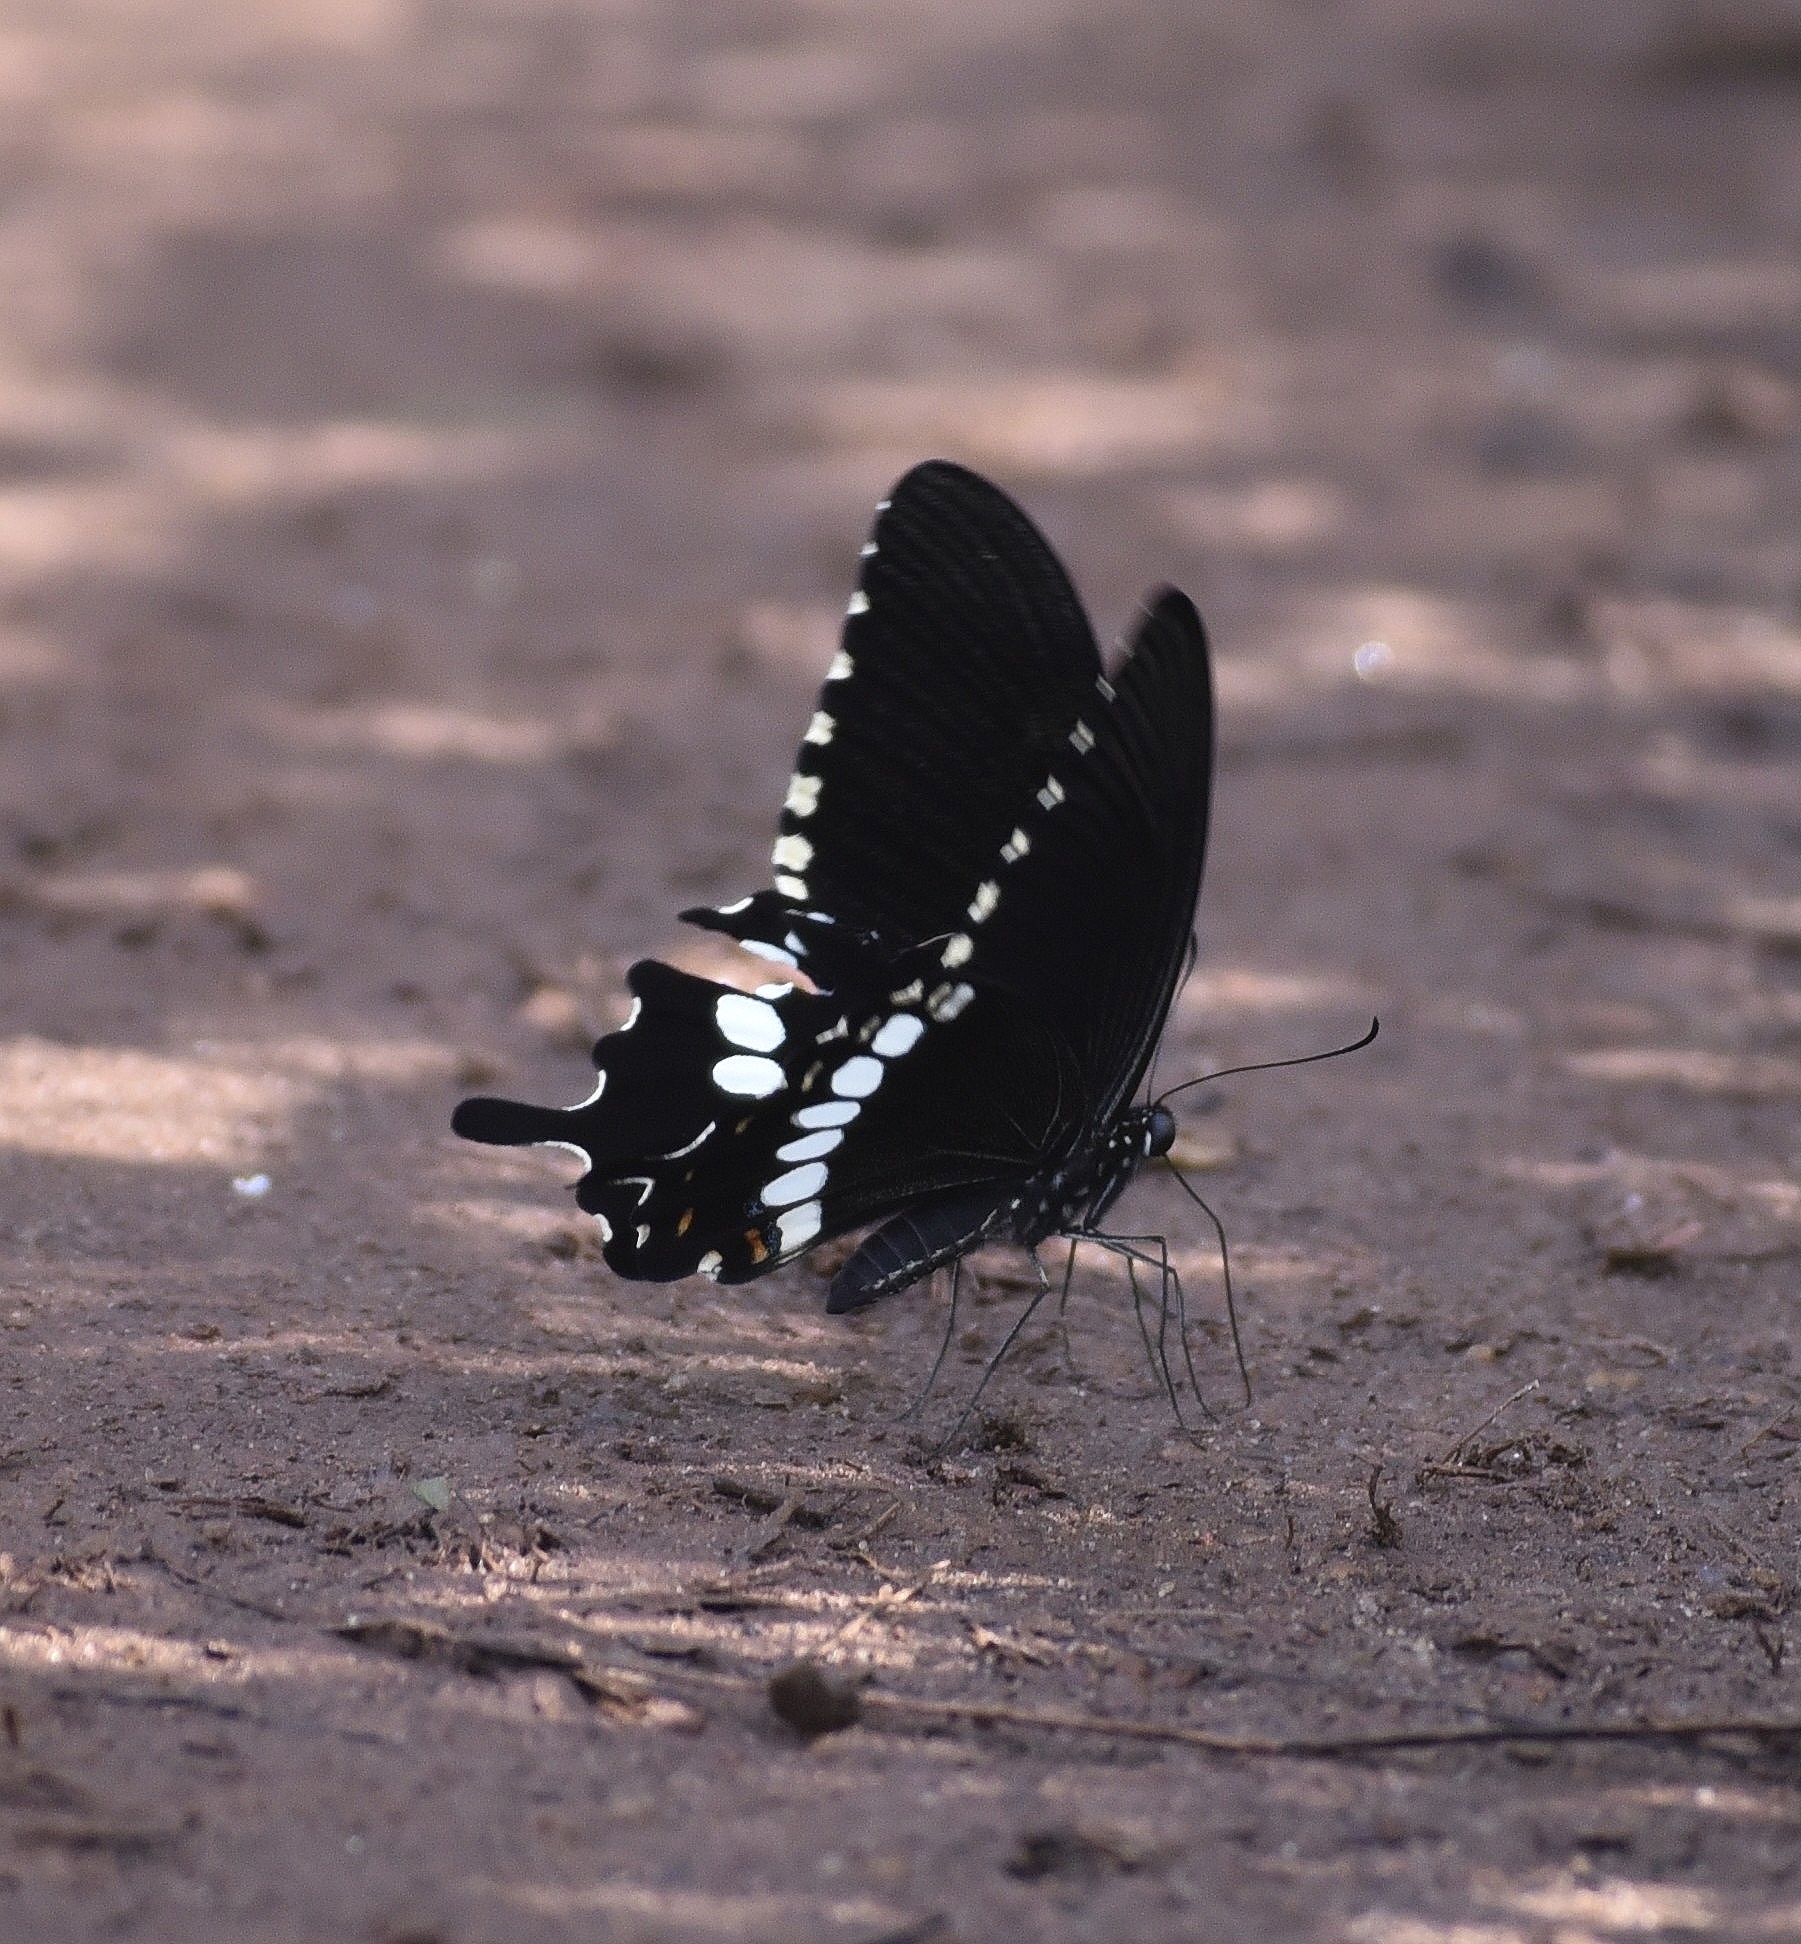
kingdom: Animalia
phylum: Arthropoda
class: Insecta
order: Lepidoptera
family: Papilionidae
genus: Papilio
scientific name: Papilio polytes
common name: Common mormon
